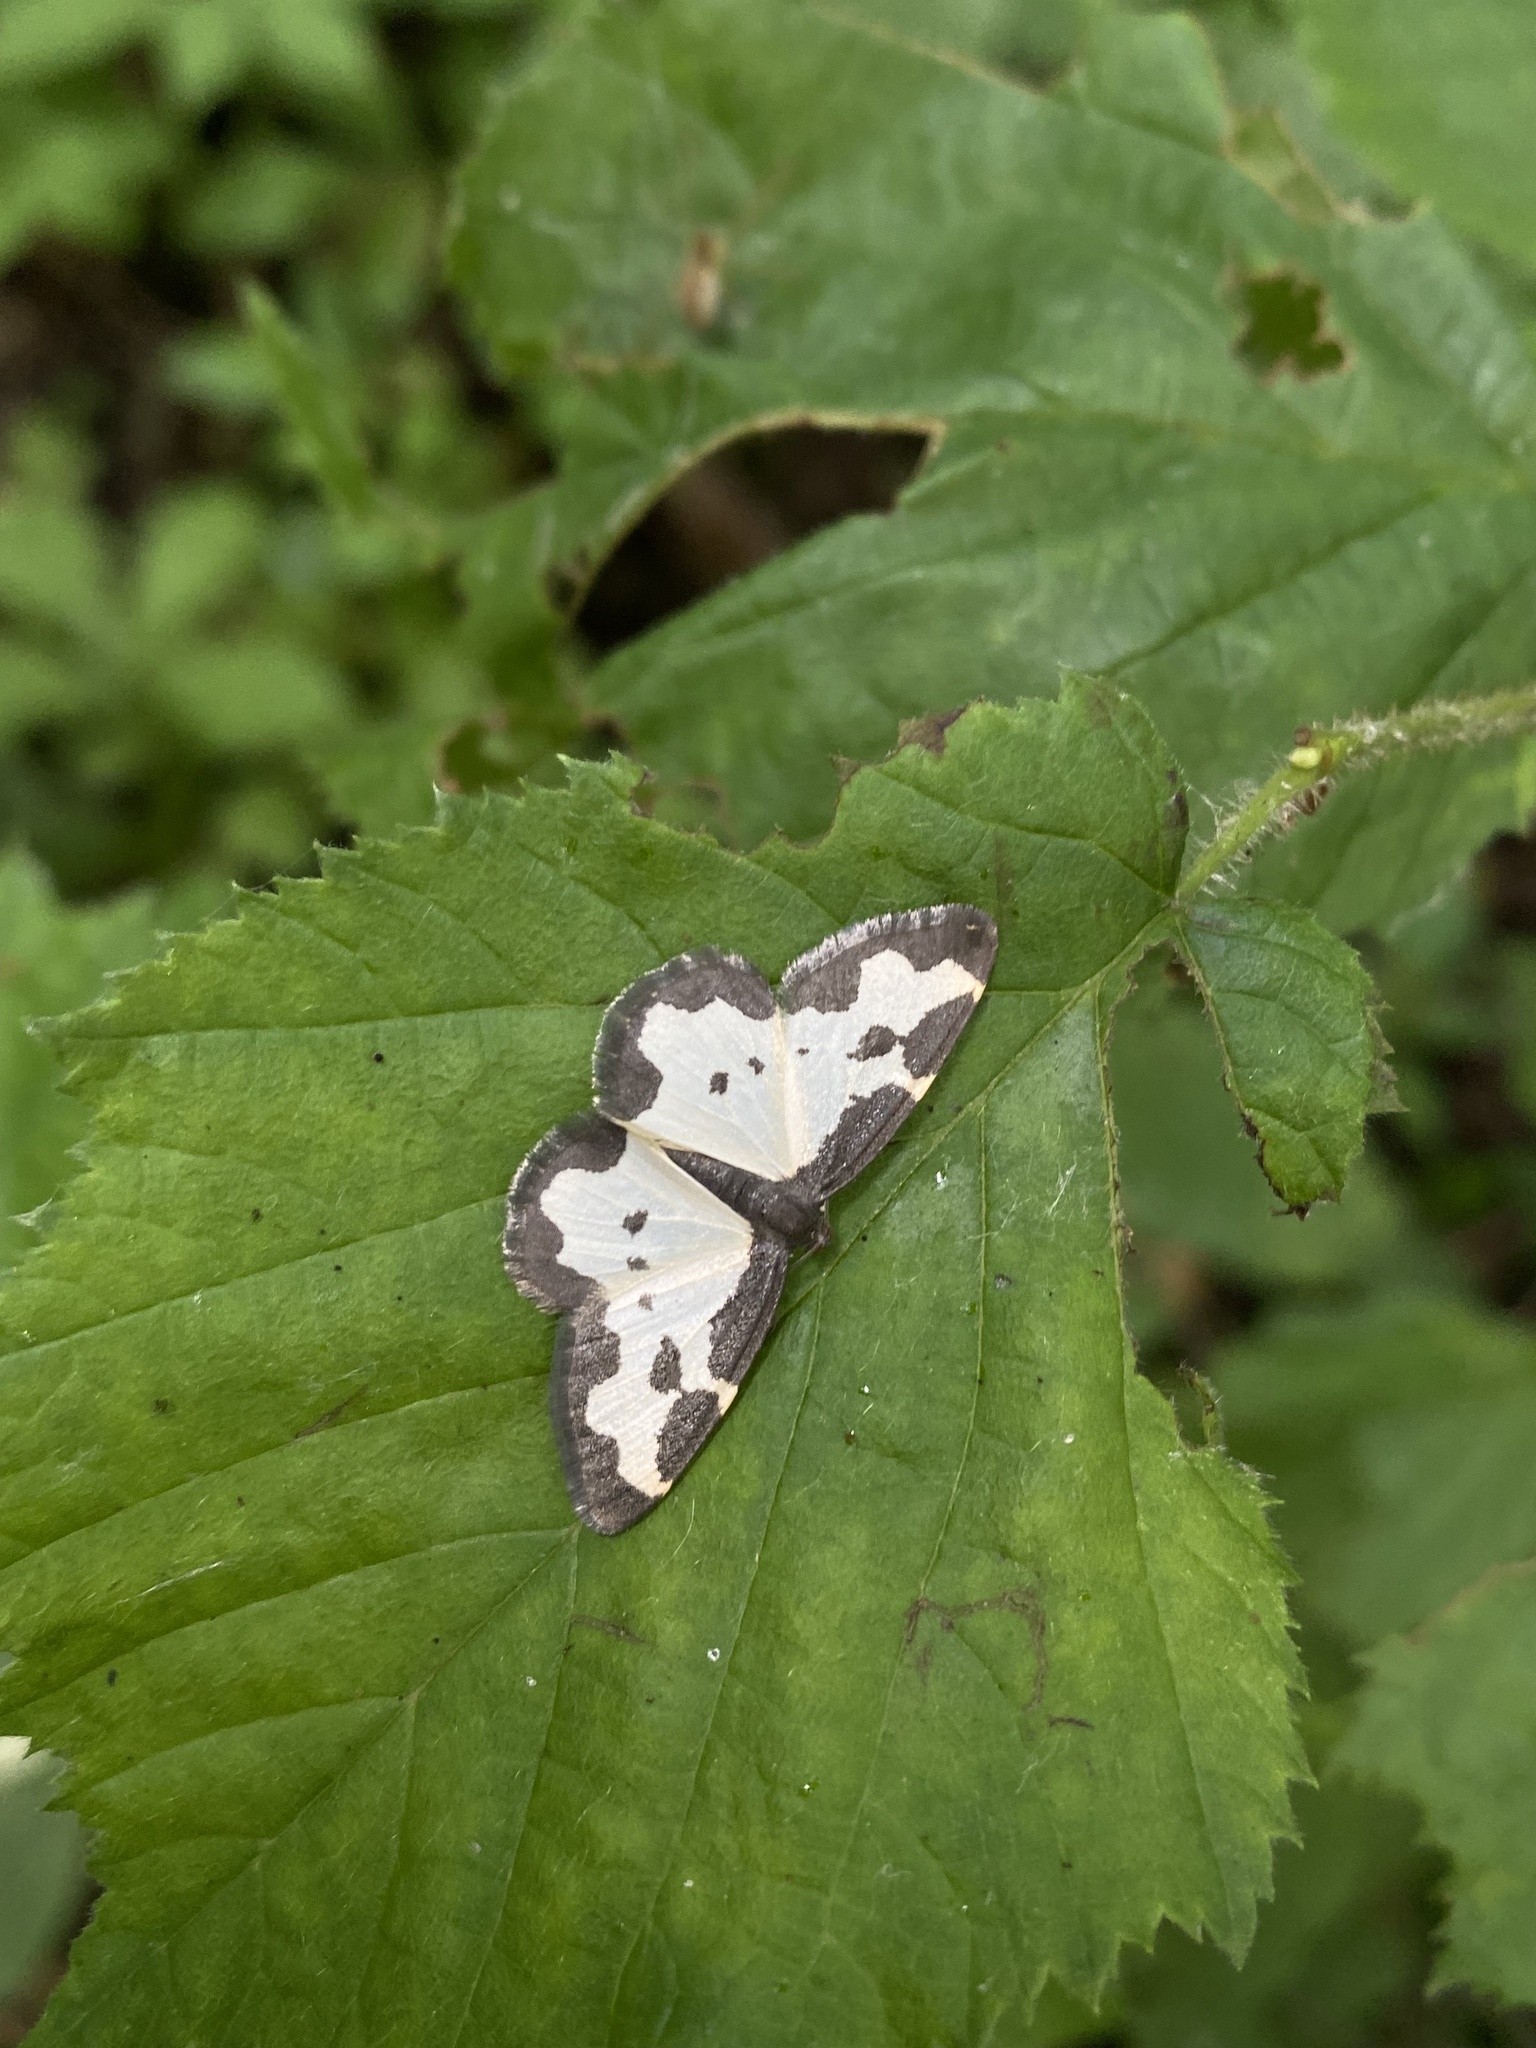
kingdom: Animalia
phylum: Arthropoda
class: Insecta
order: Lepidoptera
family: Geometridae
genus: Lomaspilis
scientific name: Lomaspilis marginata
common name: Clouded border
